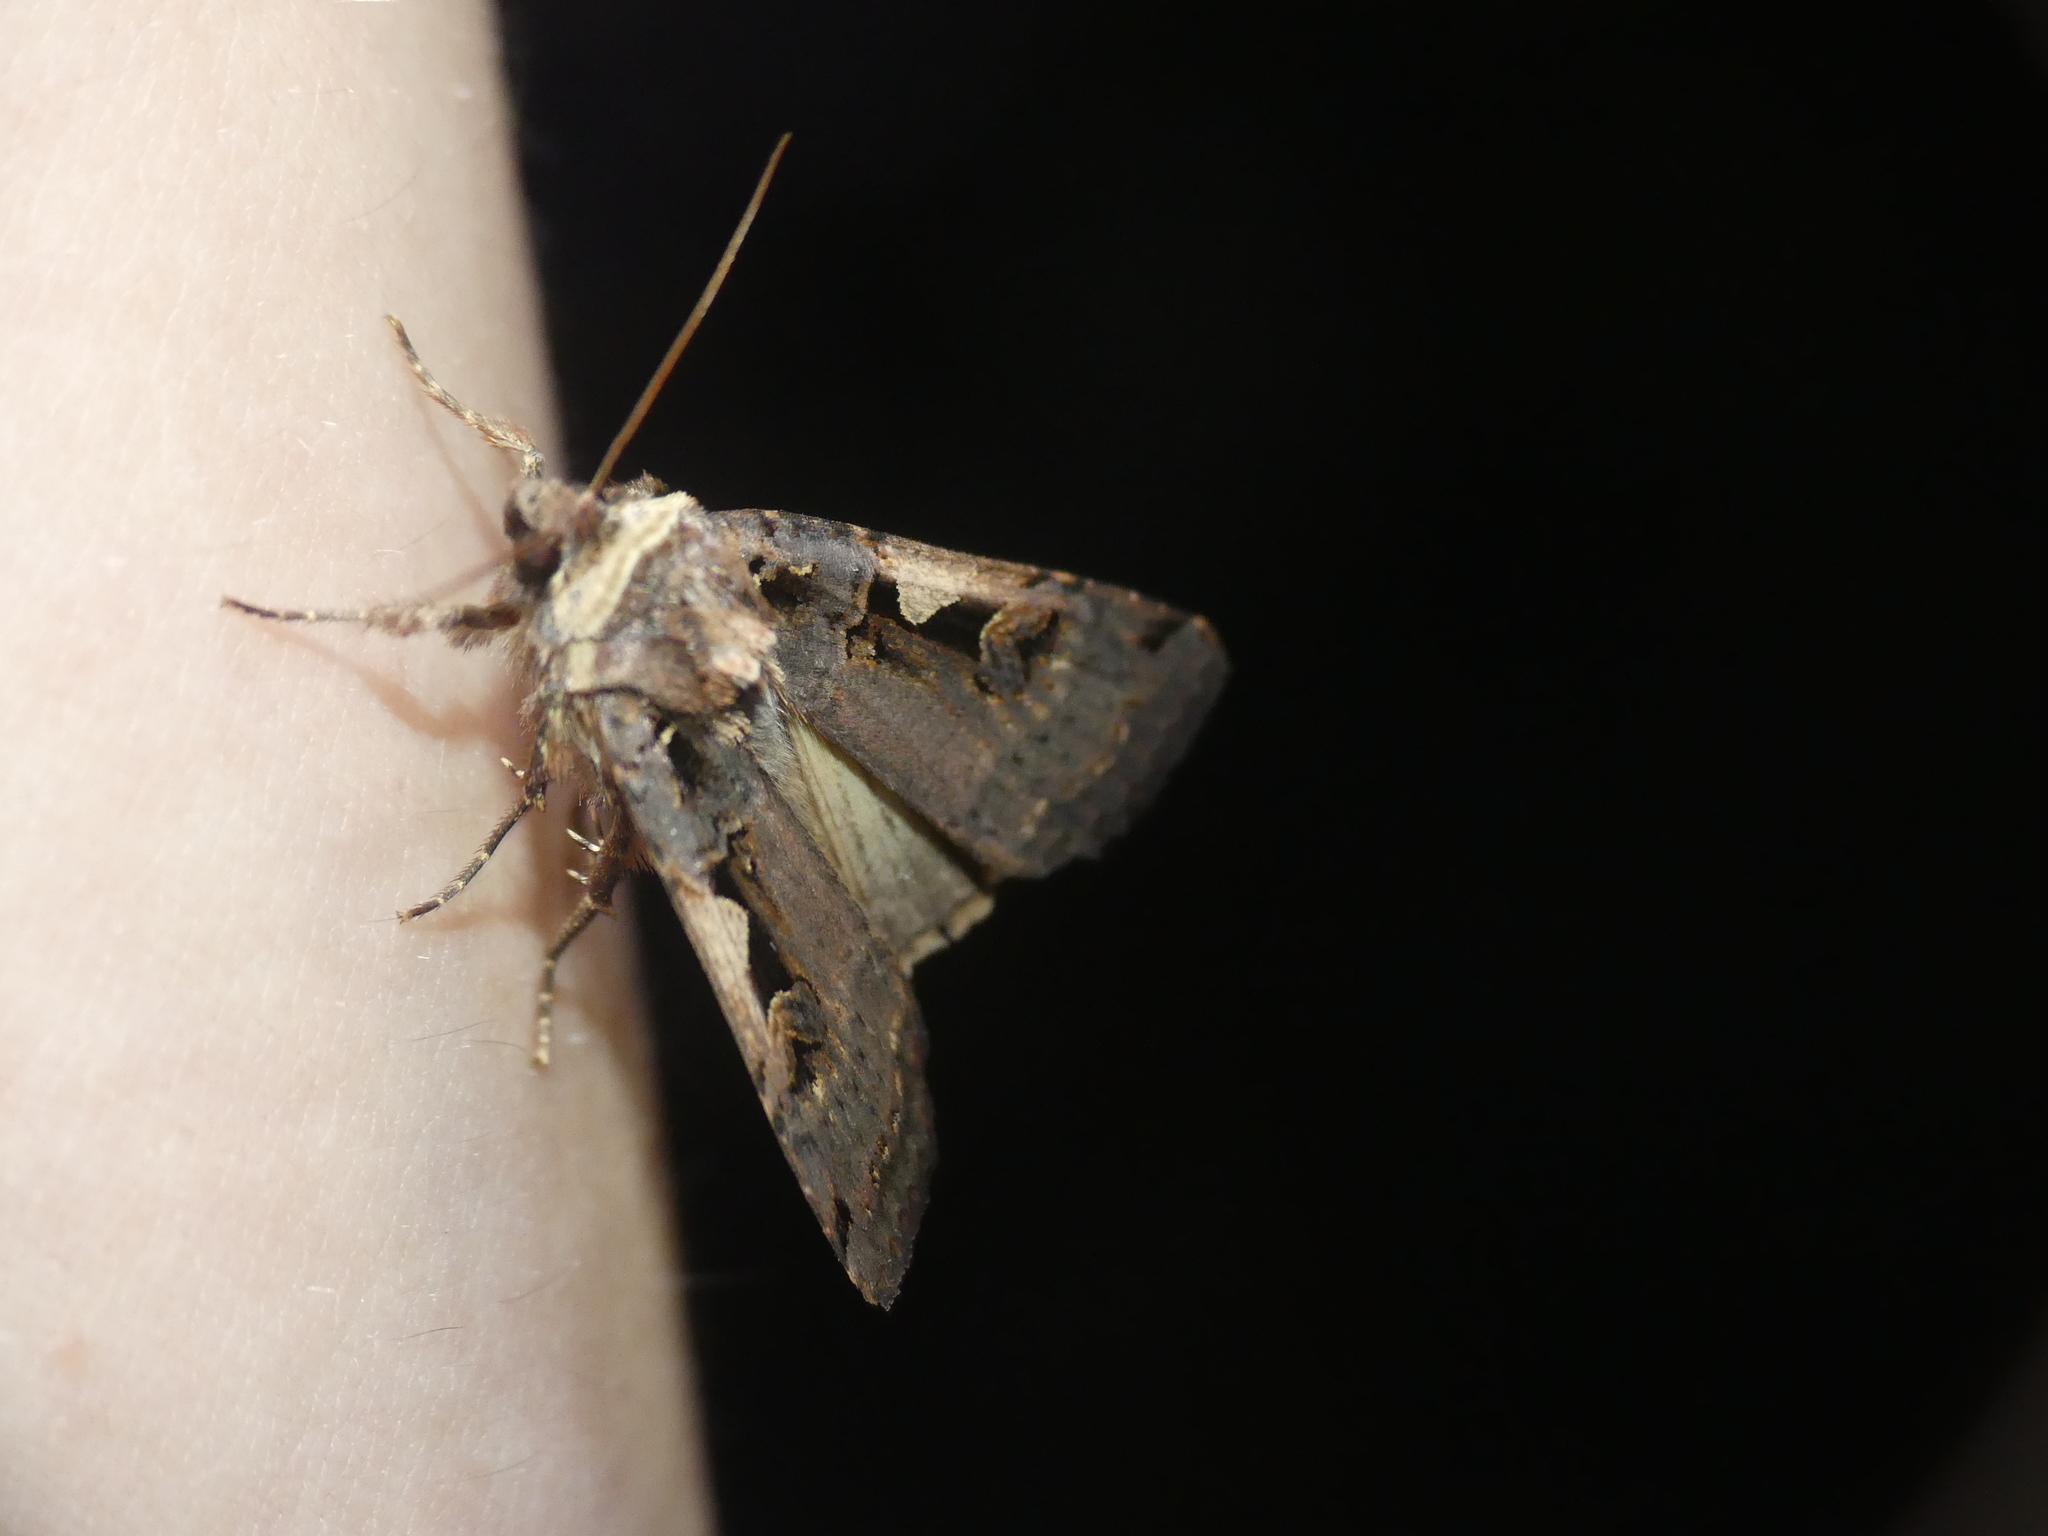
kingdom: Animalia
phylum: Arthropoda
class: Insecta
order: Lepidoptera
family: Noctuidae
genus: Xestia
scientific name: Xestia c-nigrum
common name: Setaceous hebrew character
